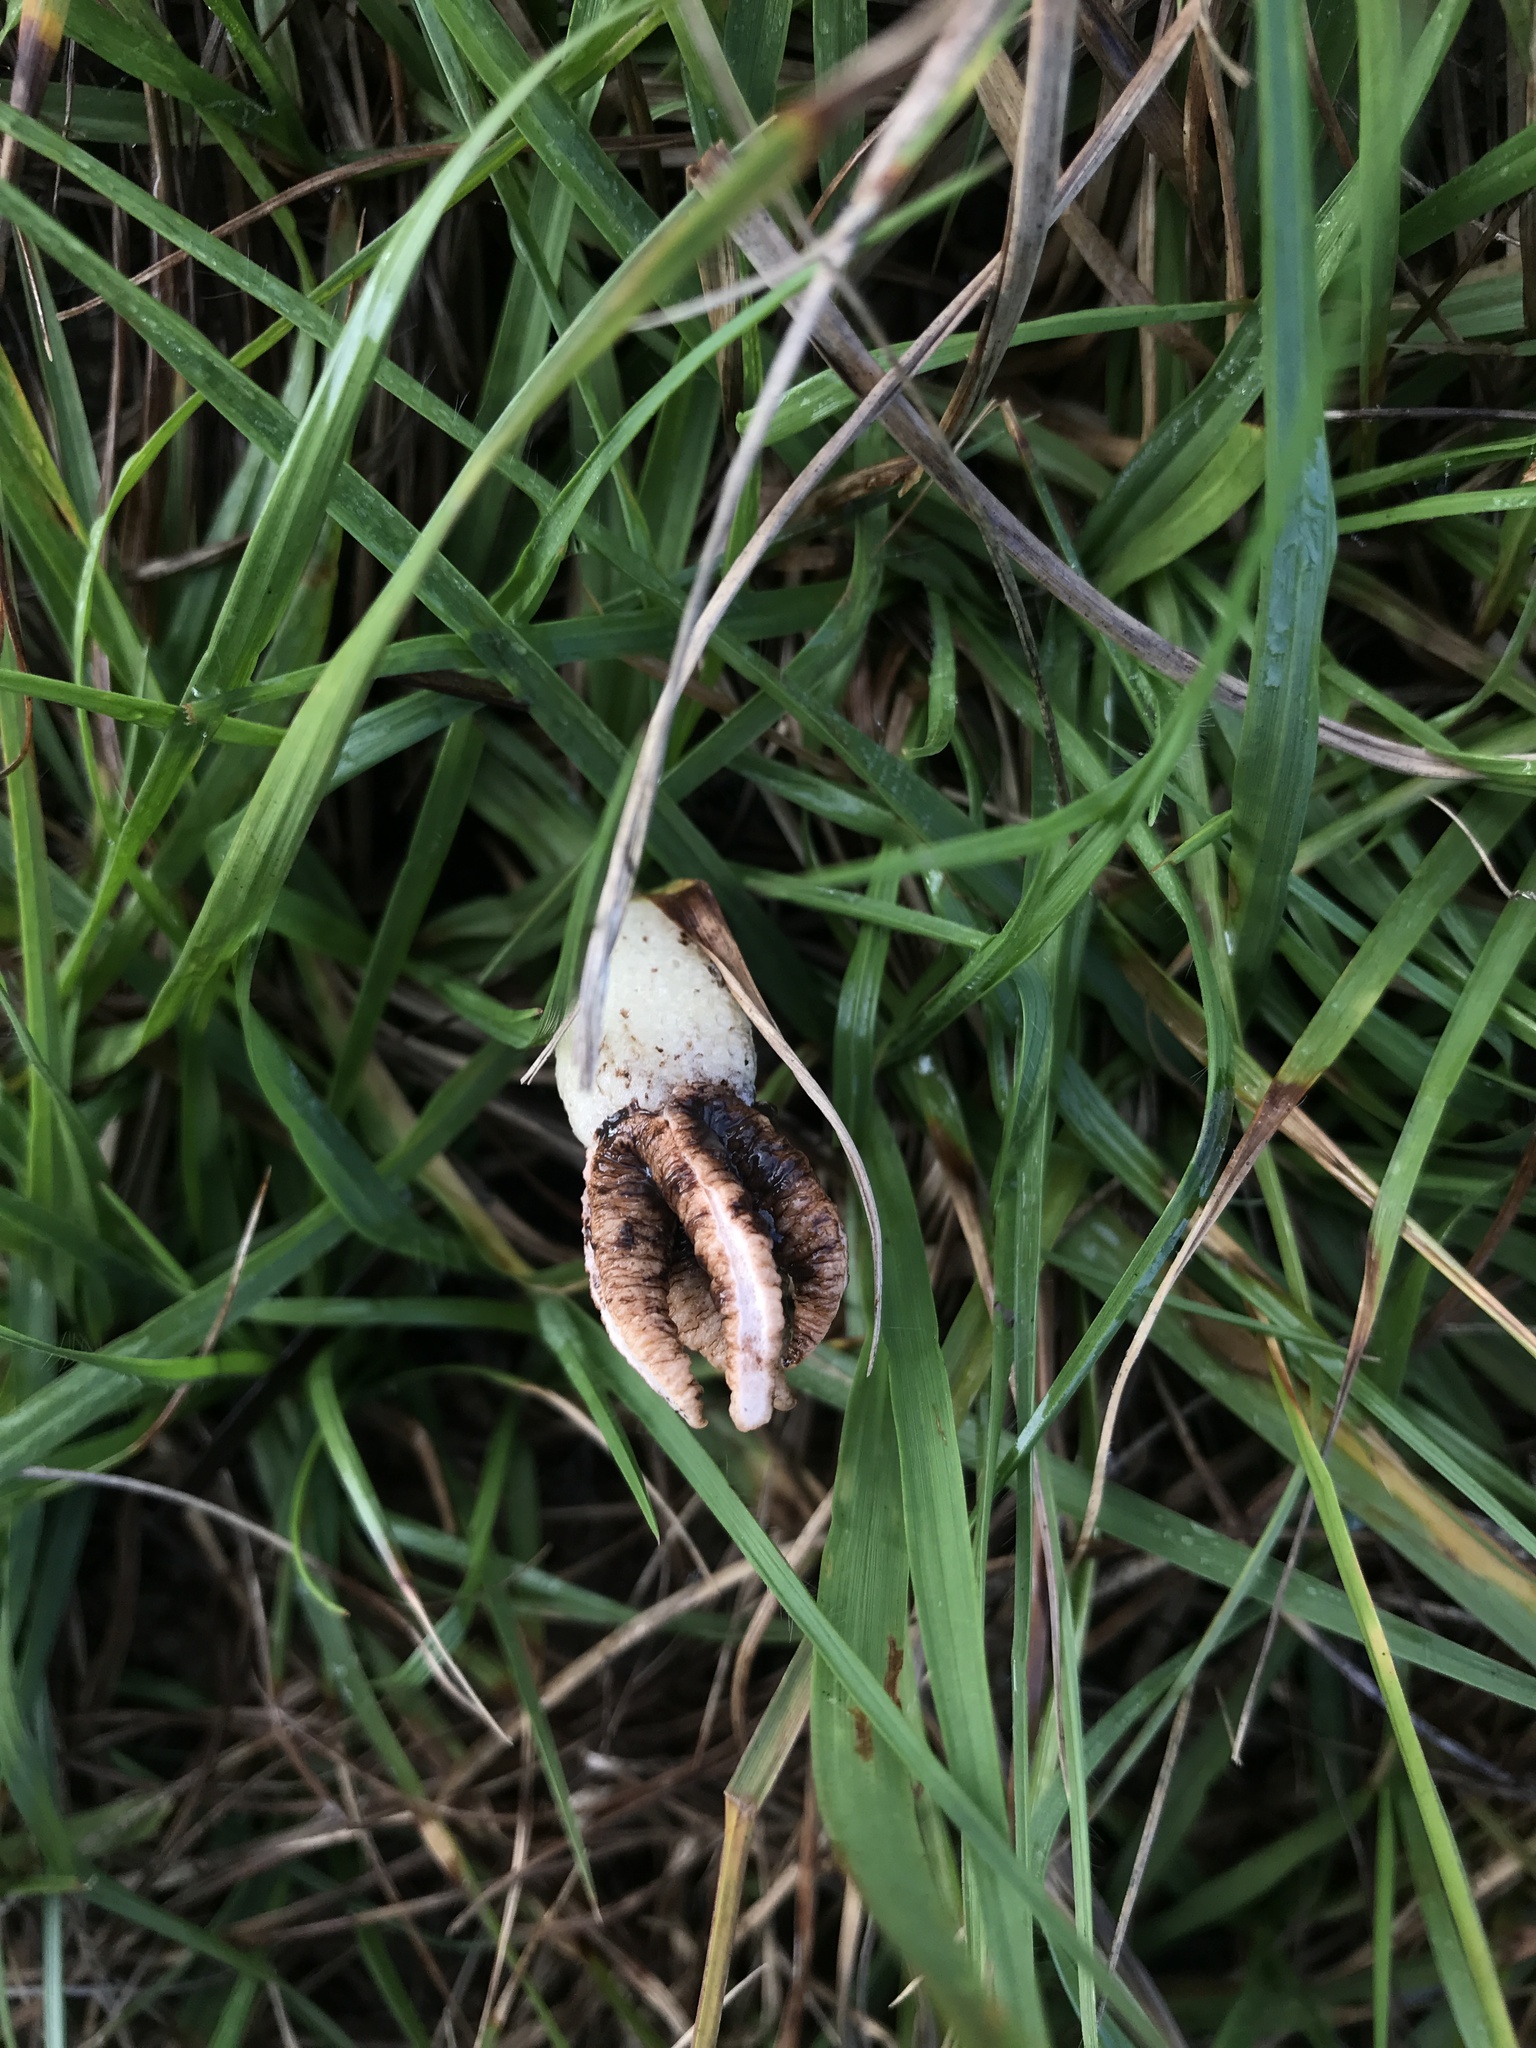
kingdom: Fungi
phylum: Basidiomycota
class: Agaricomycetes
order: Phallales
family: Phallaceae
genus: Lysurus
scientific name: Lysurus cruciatus
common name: Lizard's claw
